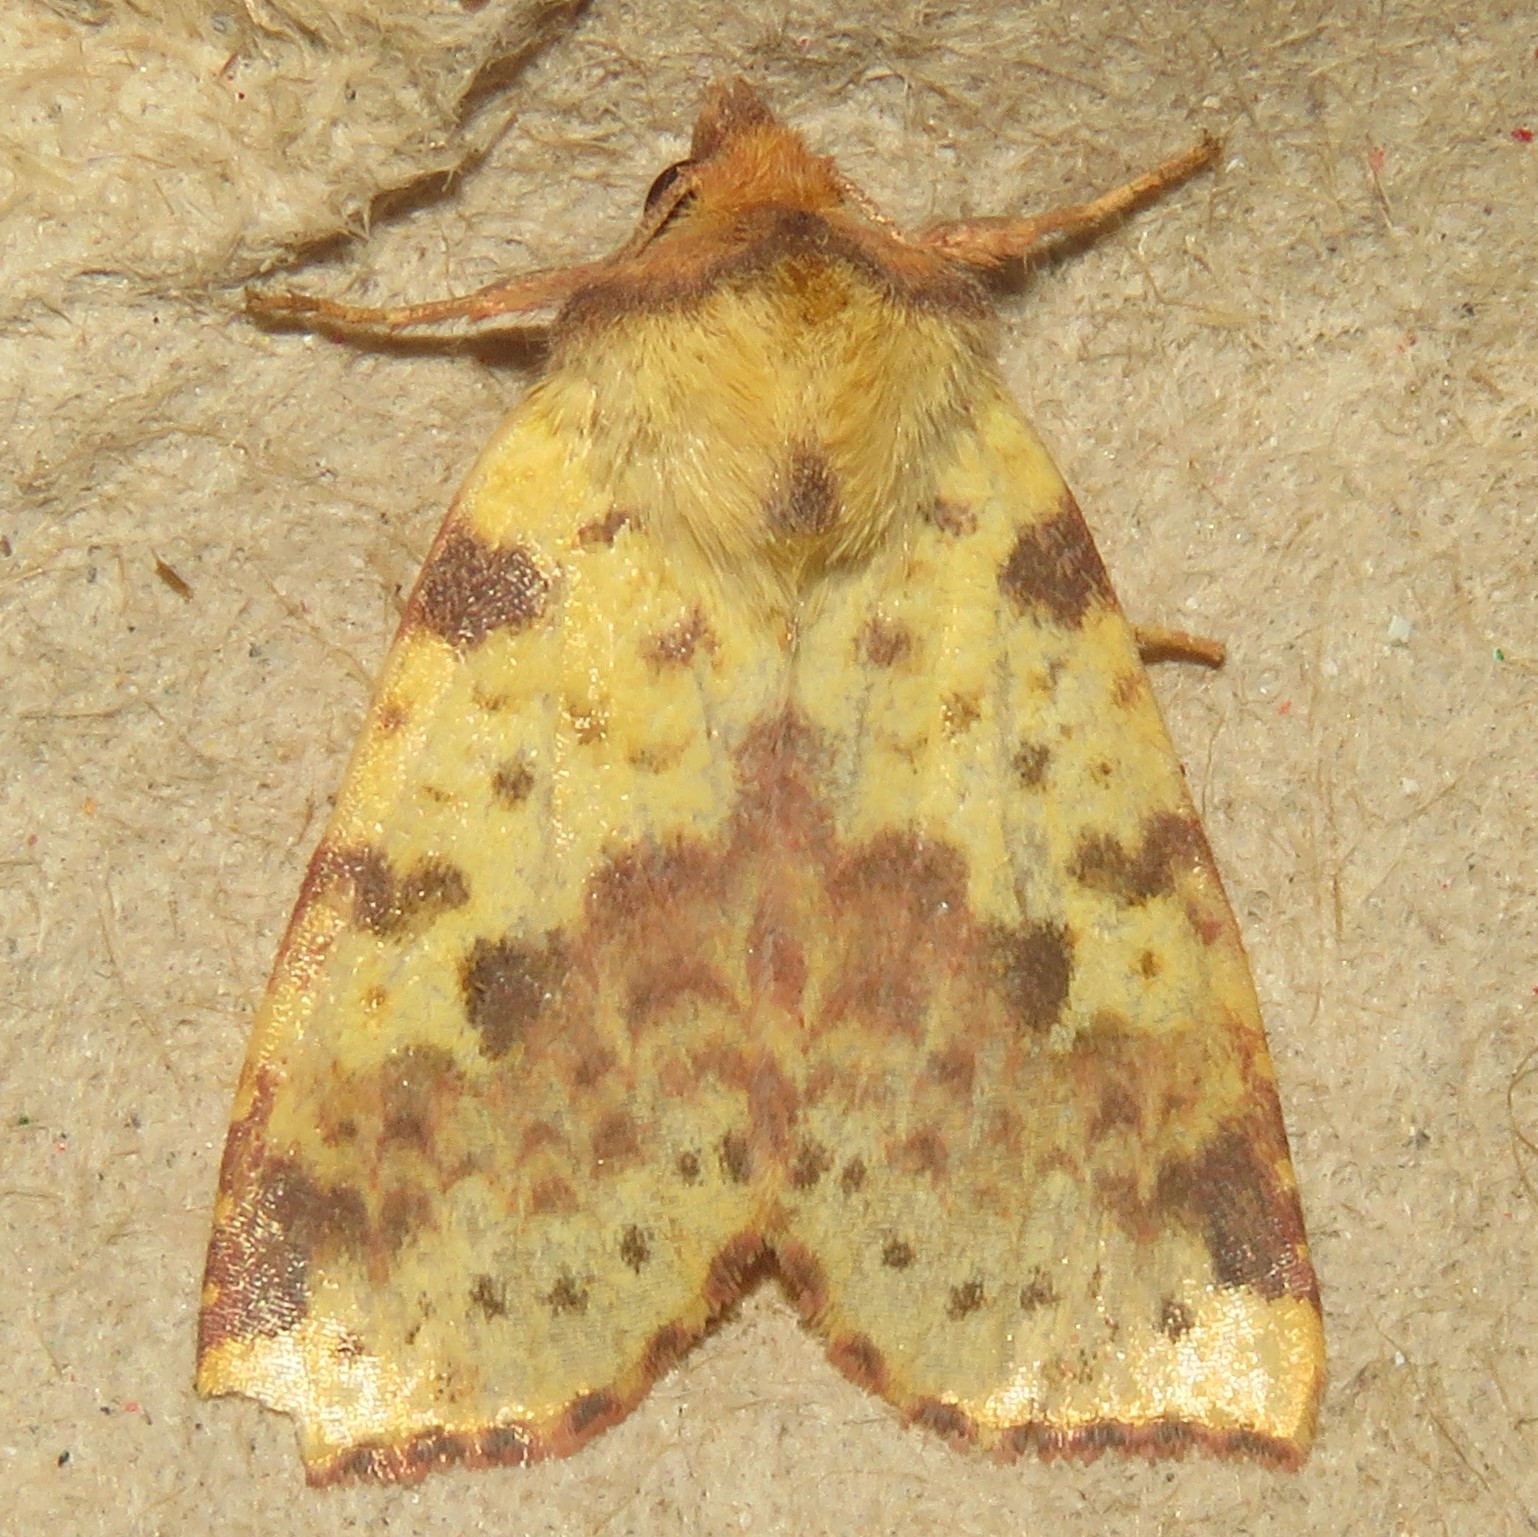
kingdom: Animalia
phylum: Arthropoda
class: Insecta
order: Lepidoptera
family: Noctuidae
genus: Xanthia
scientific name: Xanthia tatago
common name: Pink-banded sallow
